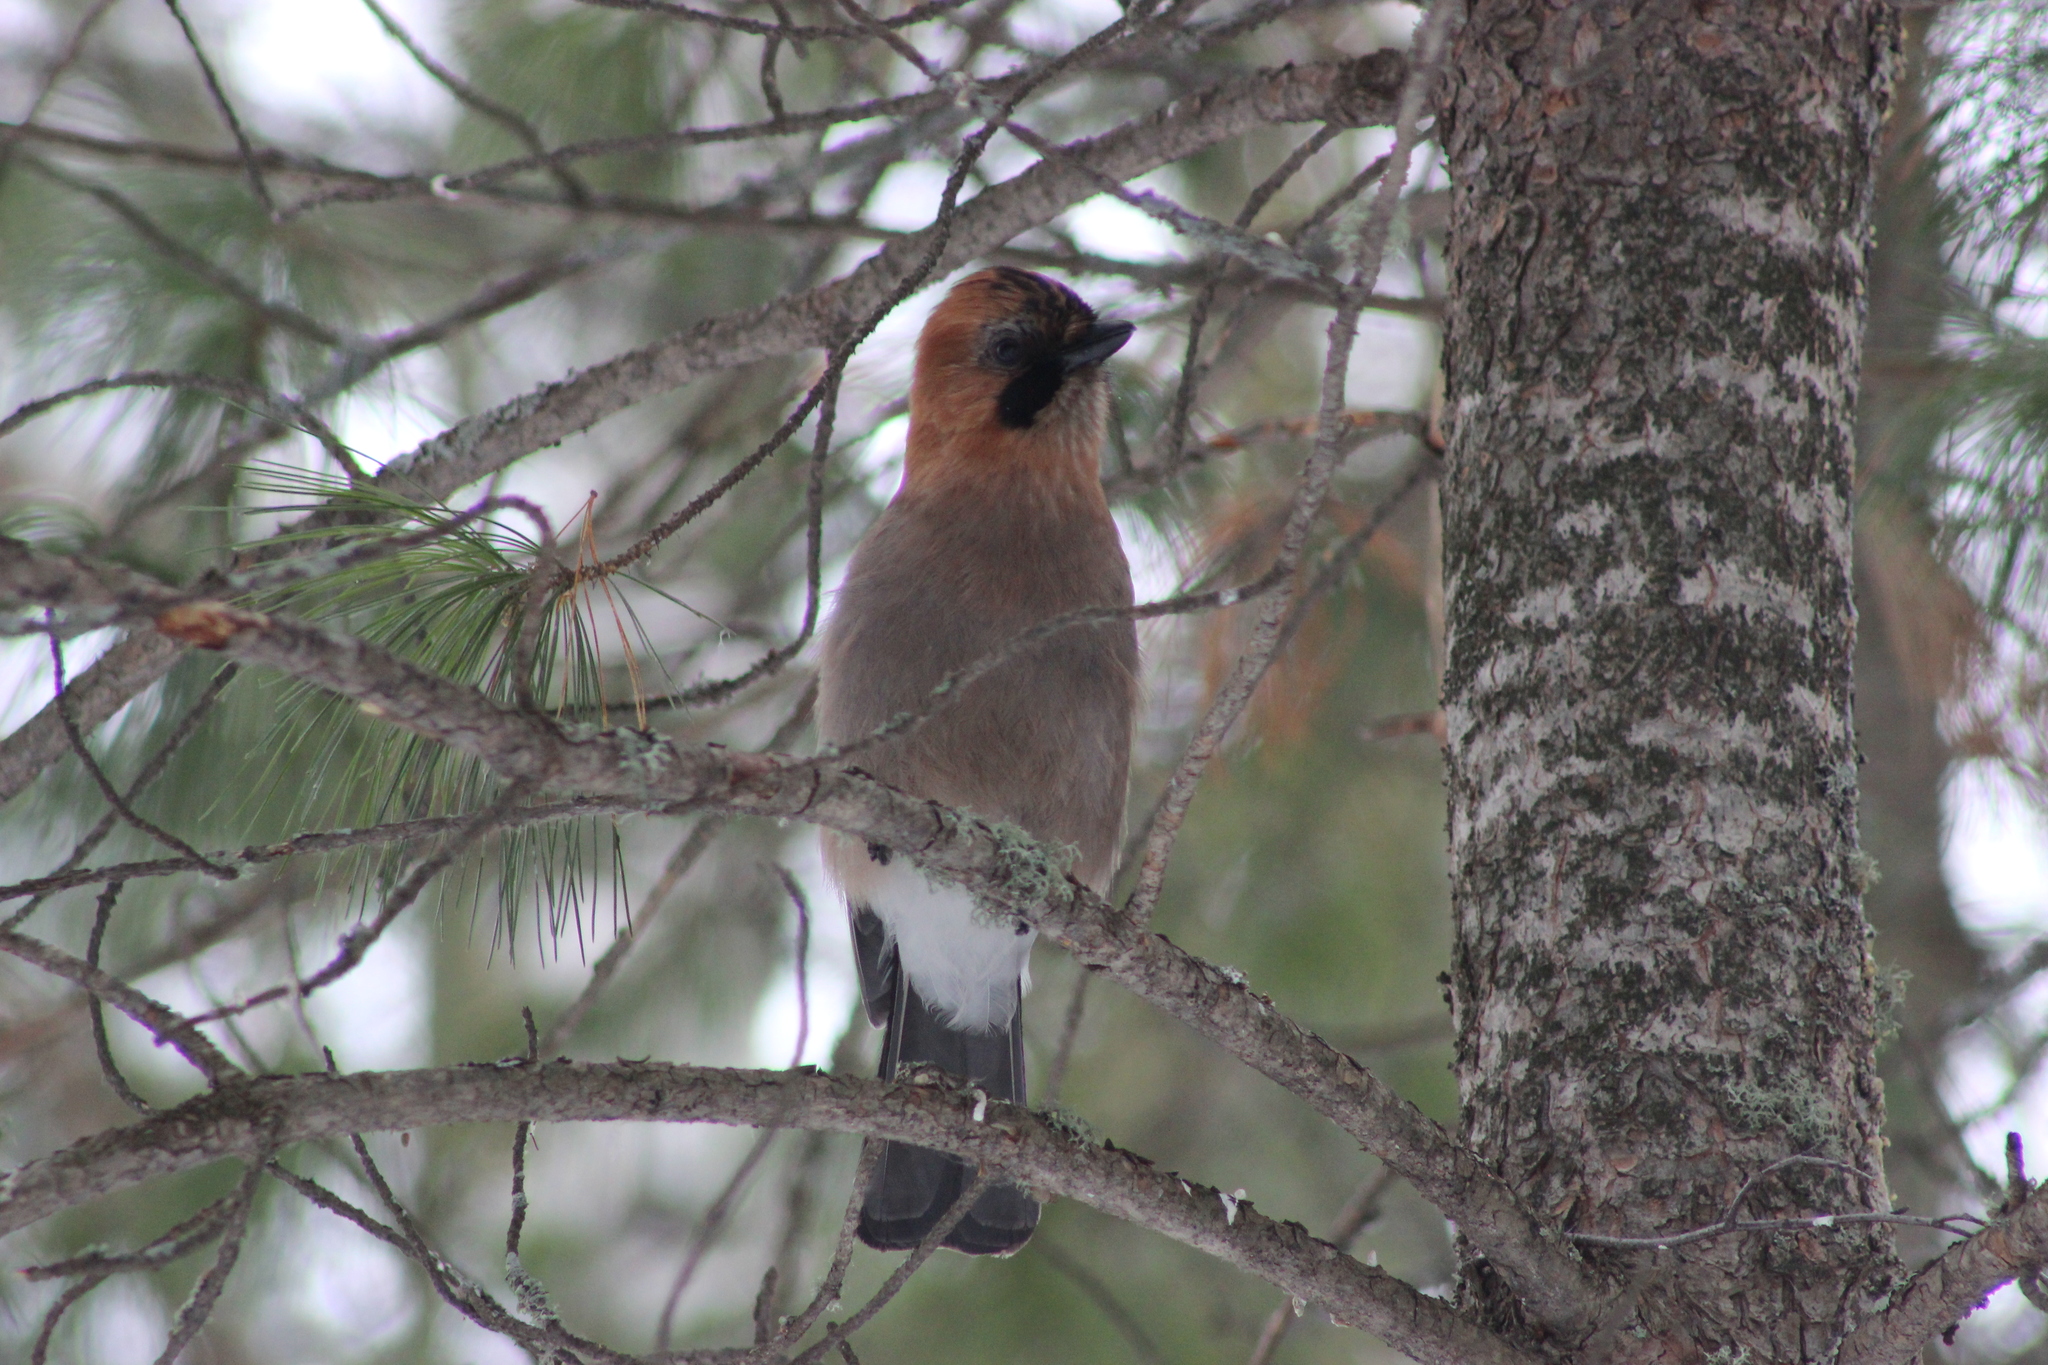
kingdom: Animalia
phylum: Chordata
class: Aves
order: Passeriformes
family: Corvidae
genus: Garrulus
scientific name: Garrulus glandarius
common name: Eurasian jay
